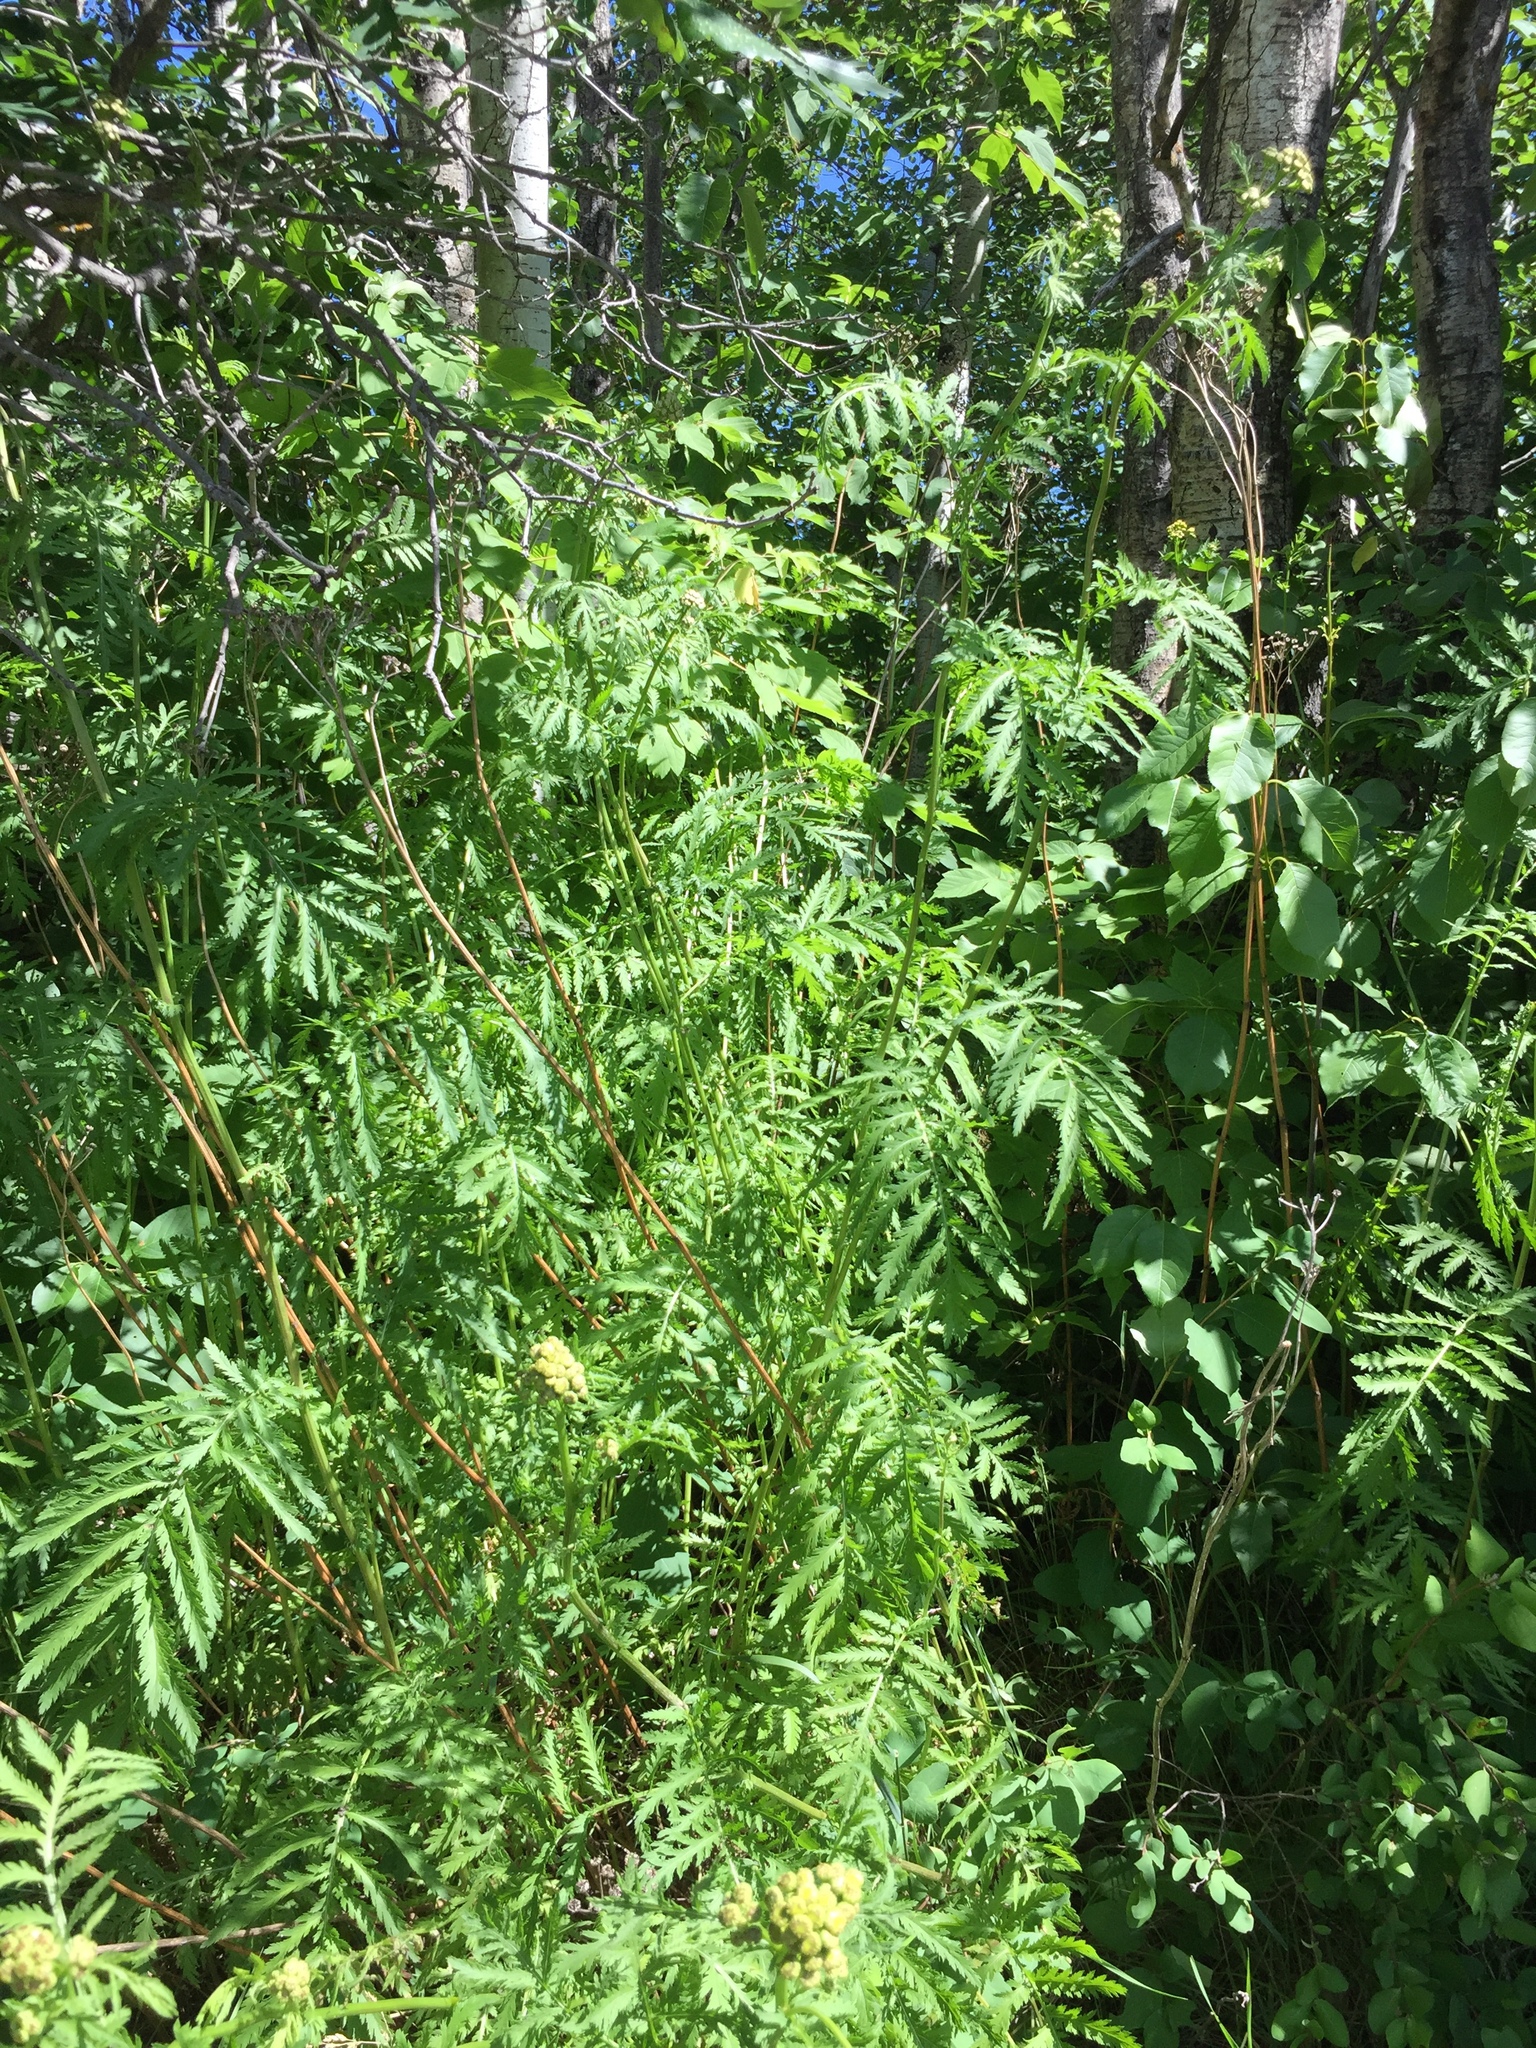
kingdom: Plantae
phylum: Tracheophyta
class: Magnoliopsida
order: Asterales
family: Asteraceae
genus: Tanacetum
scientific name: Tanacetum vulgare
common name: Common tansy
